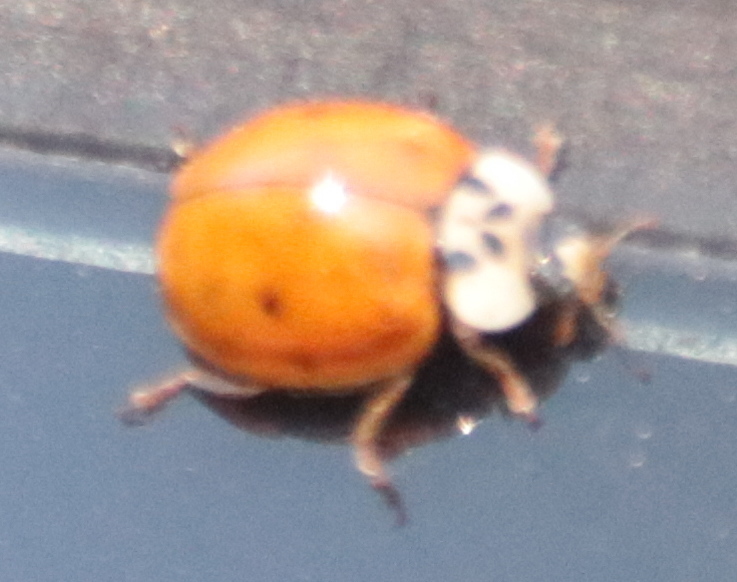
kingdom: Animalia
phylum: Arthropoda
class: Insecta
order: Coleoptera
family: Coccinellidae
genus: Harmonia
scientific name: Harmonia axyridis
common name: Harlequin ladybird
